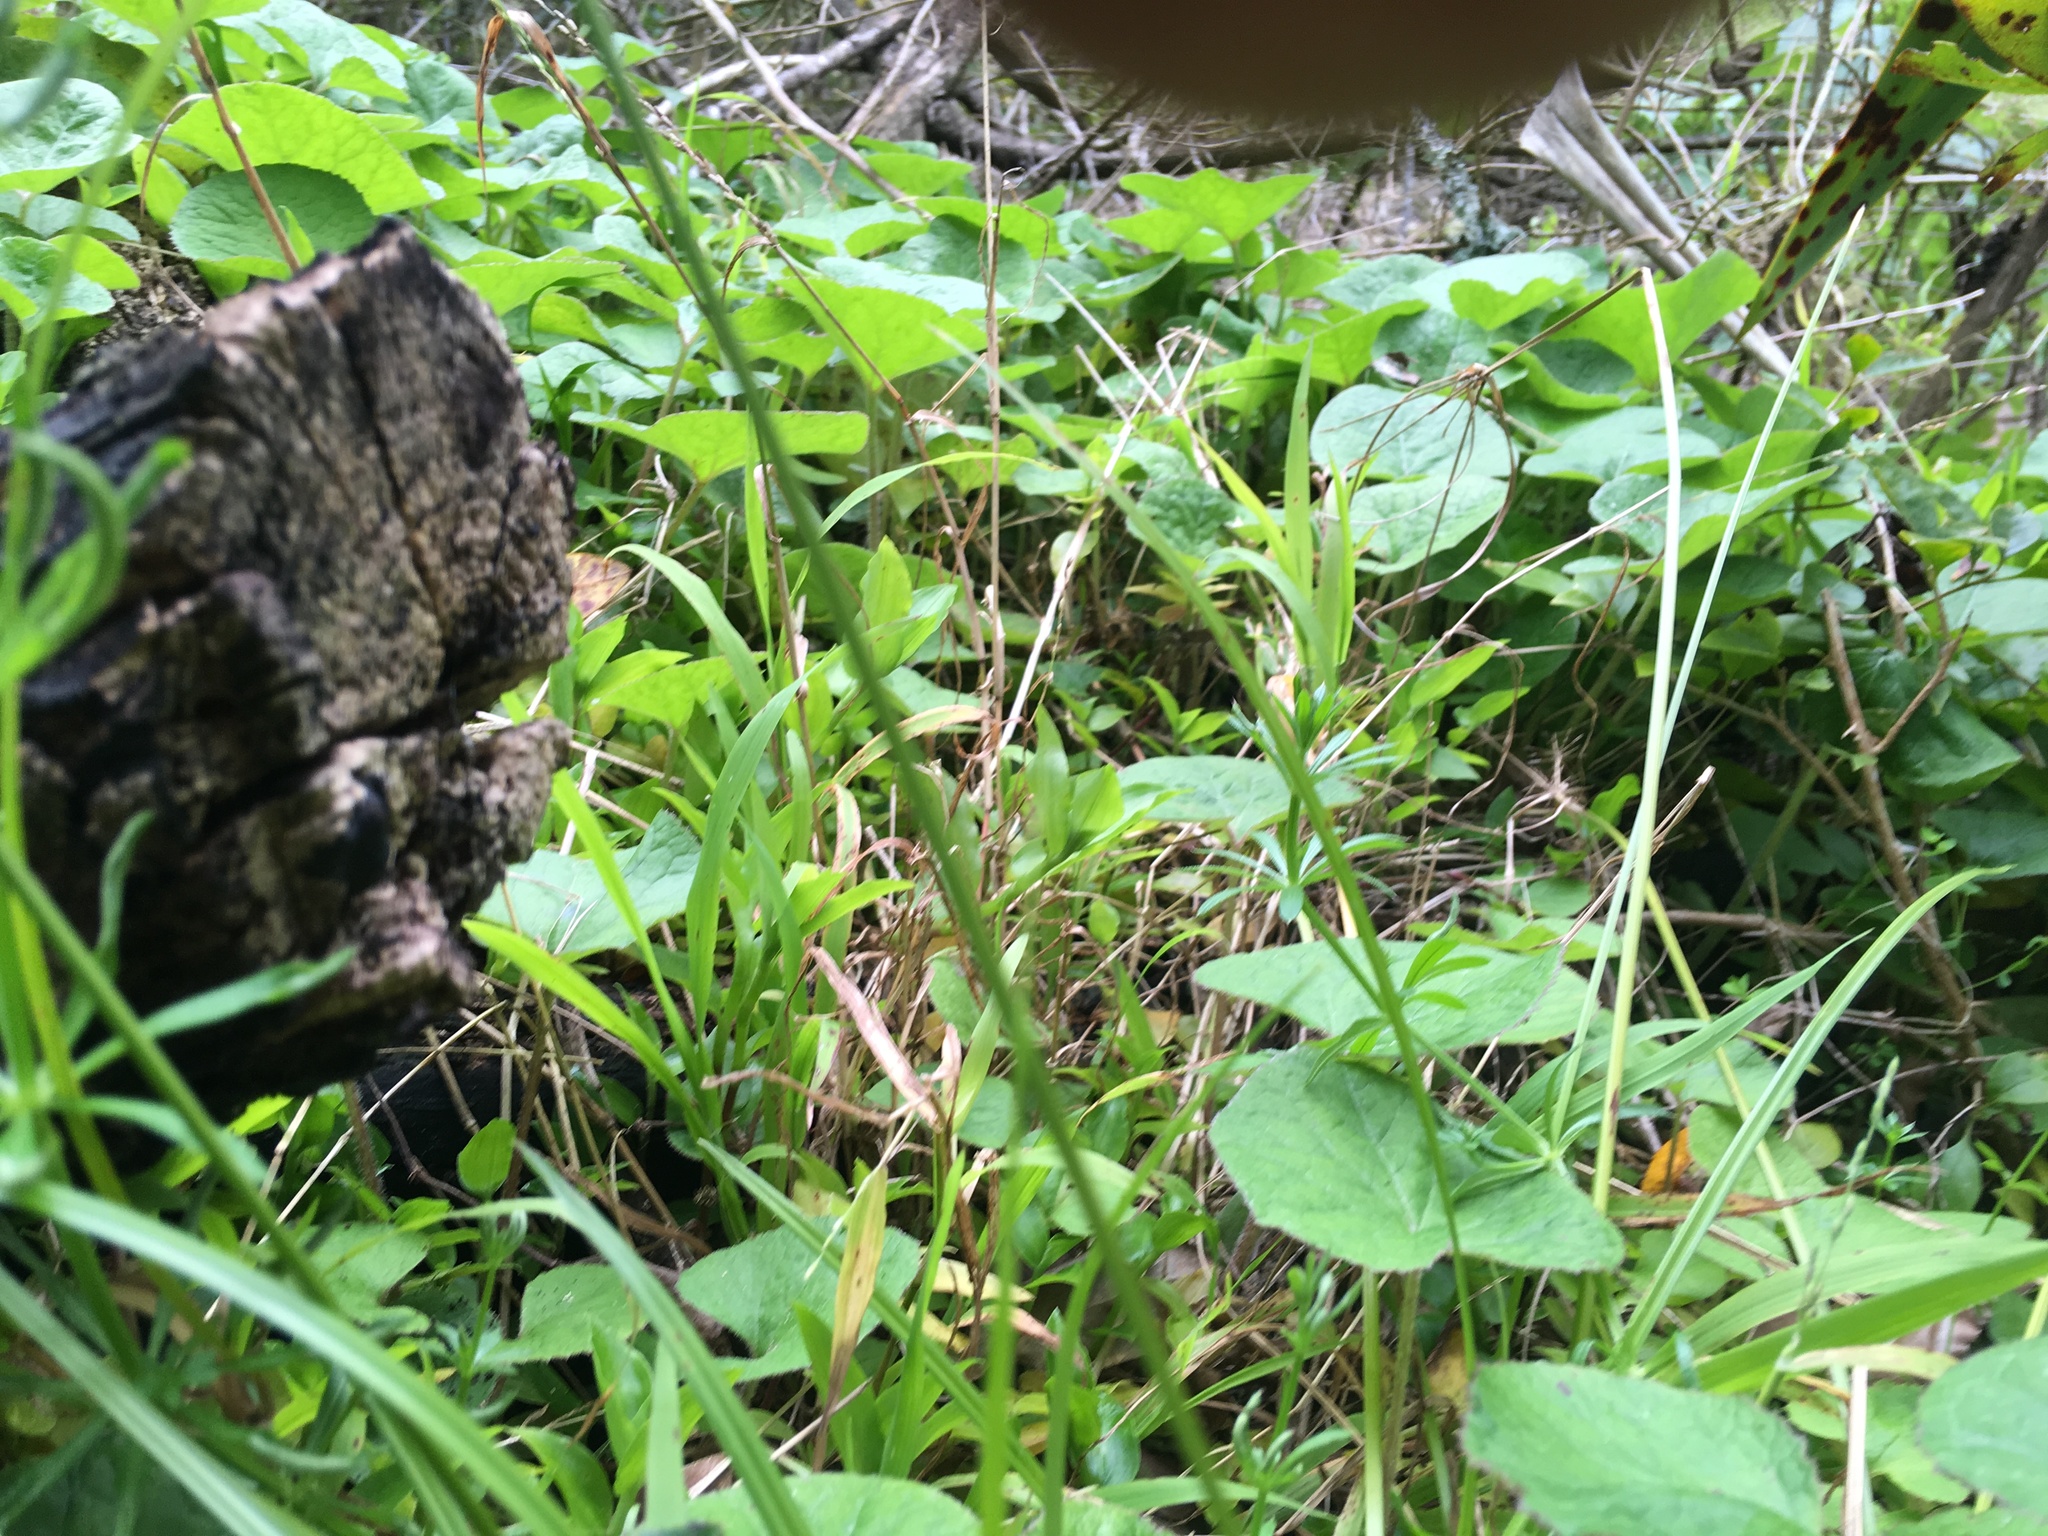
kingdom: Plantae
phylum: Tracheophyta
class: Magnoliopsida
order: Asterales
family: Asteraceae
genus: Petasites
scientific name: Petasites pyrenaicus
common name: Winter heliotrope
